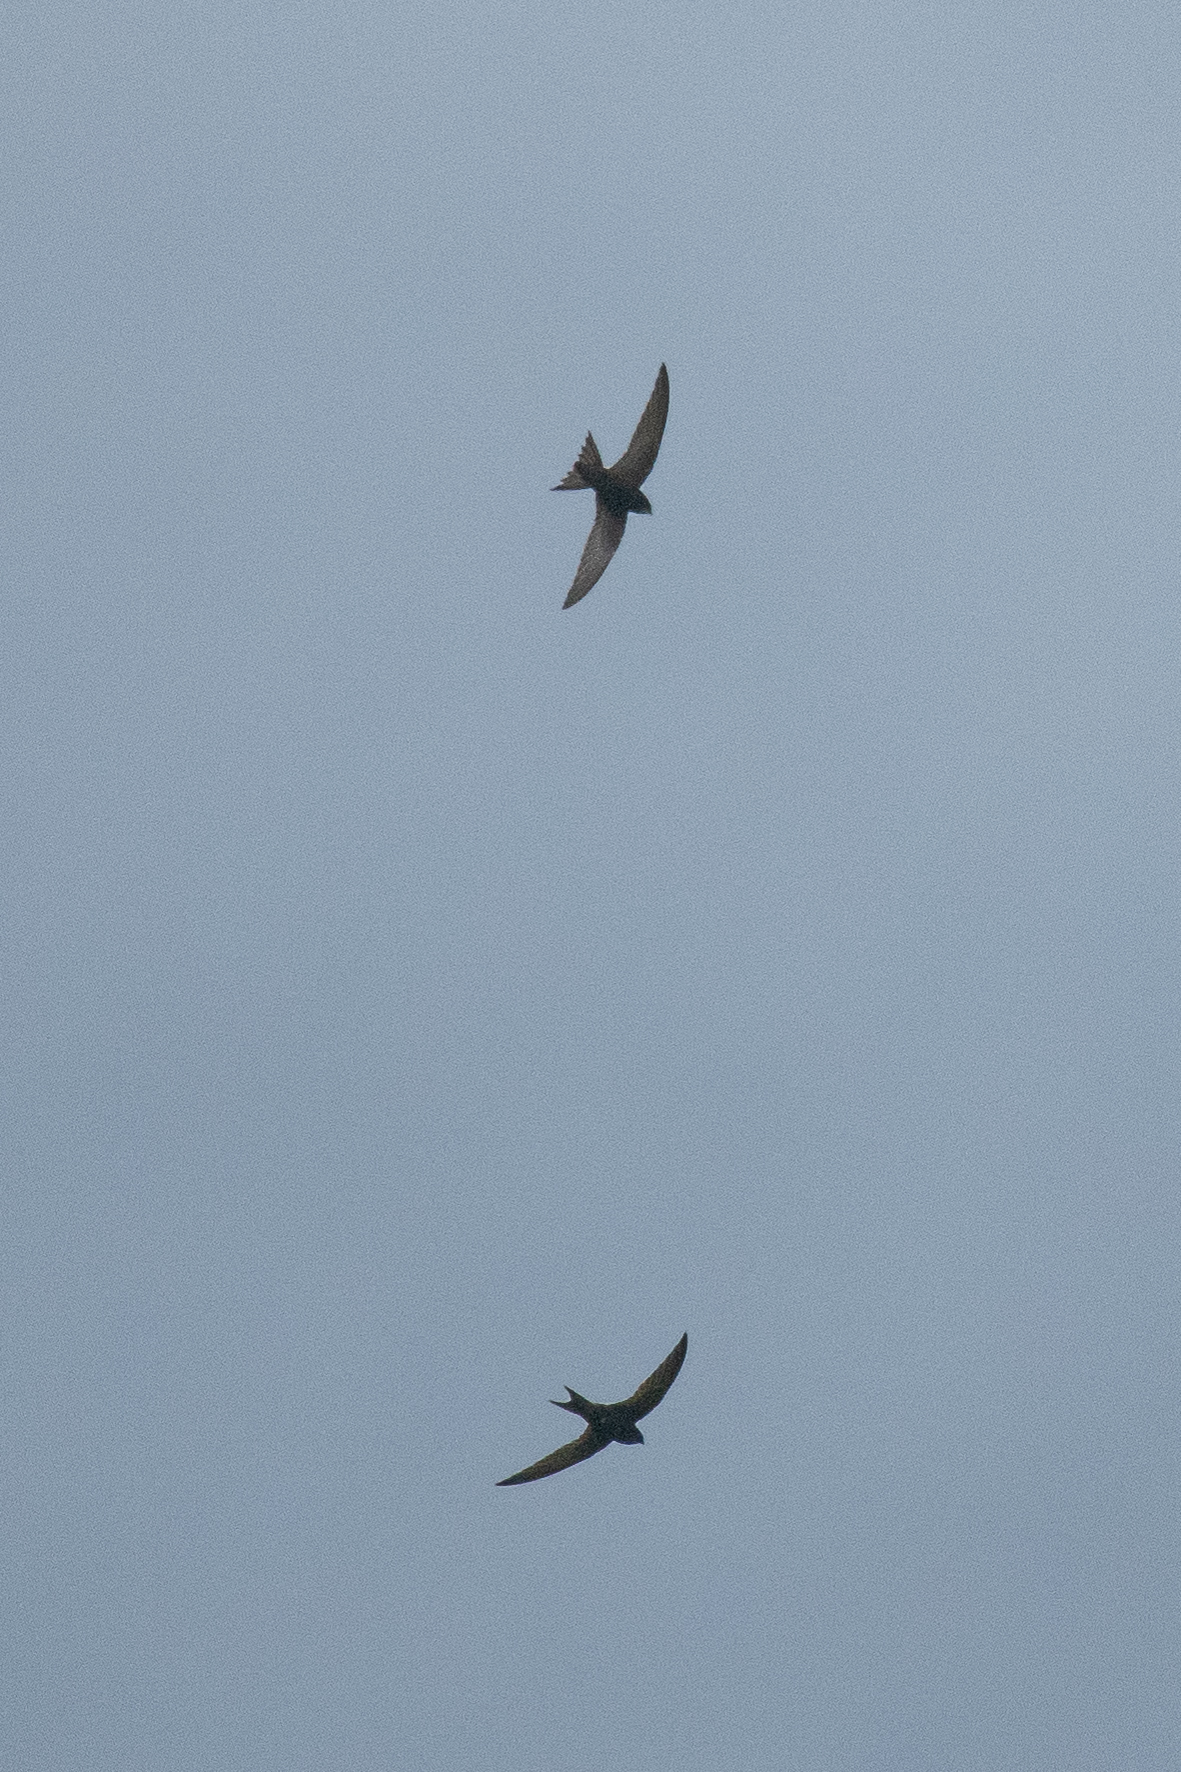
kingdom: Animalia
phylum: Chordata
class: Aves
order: Apodiformes
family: Apodidae
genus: Apus
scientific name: Apus apus
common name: Common swift
